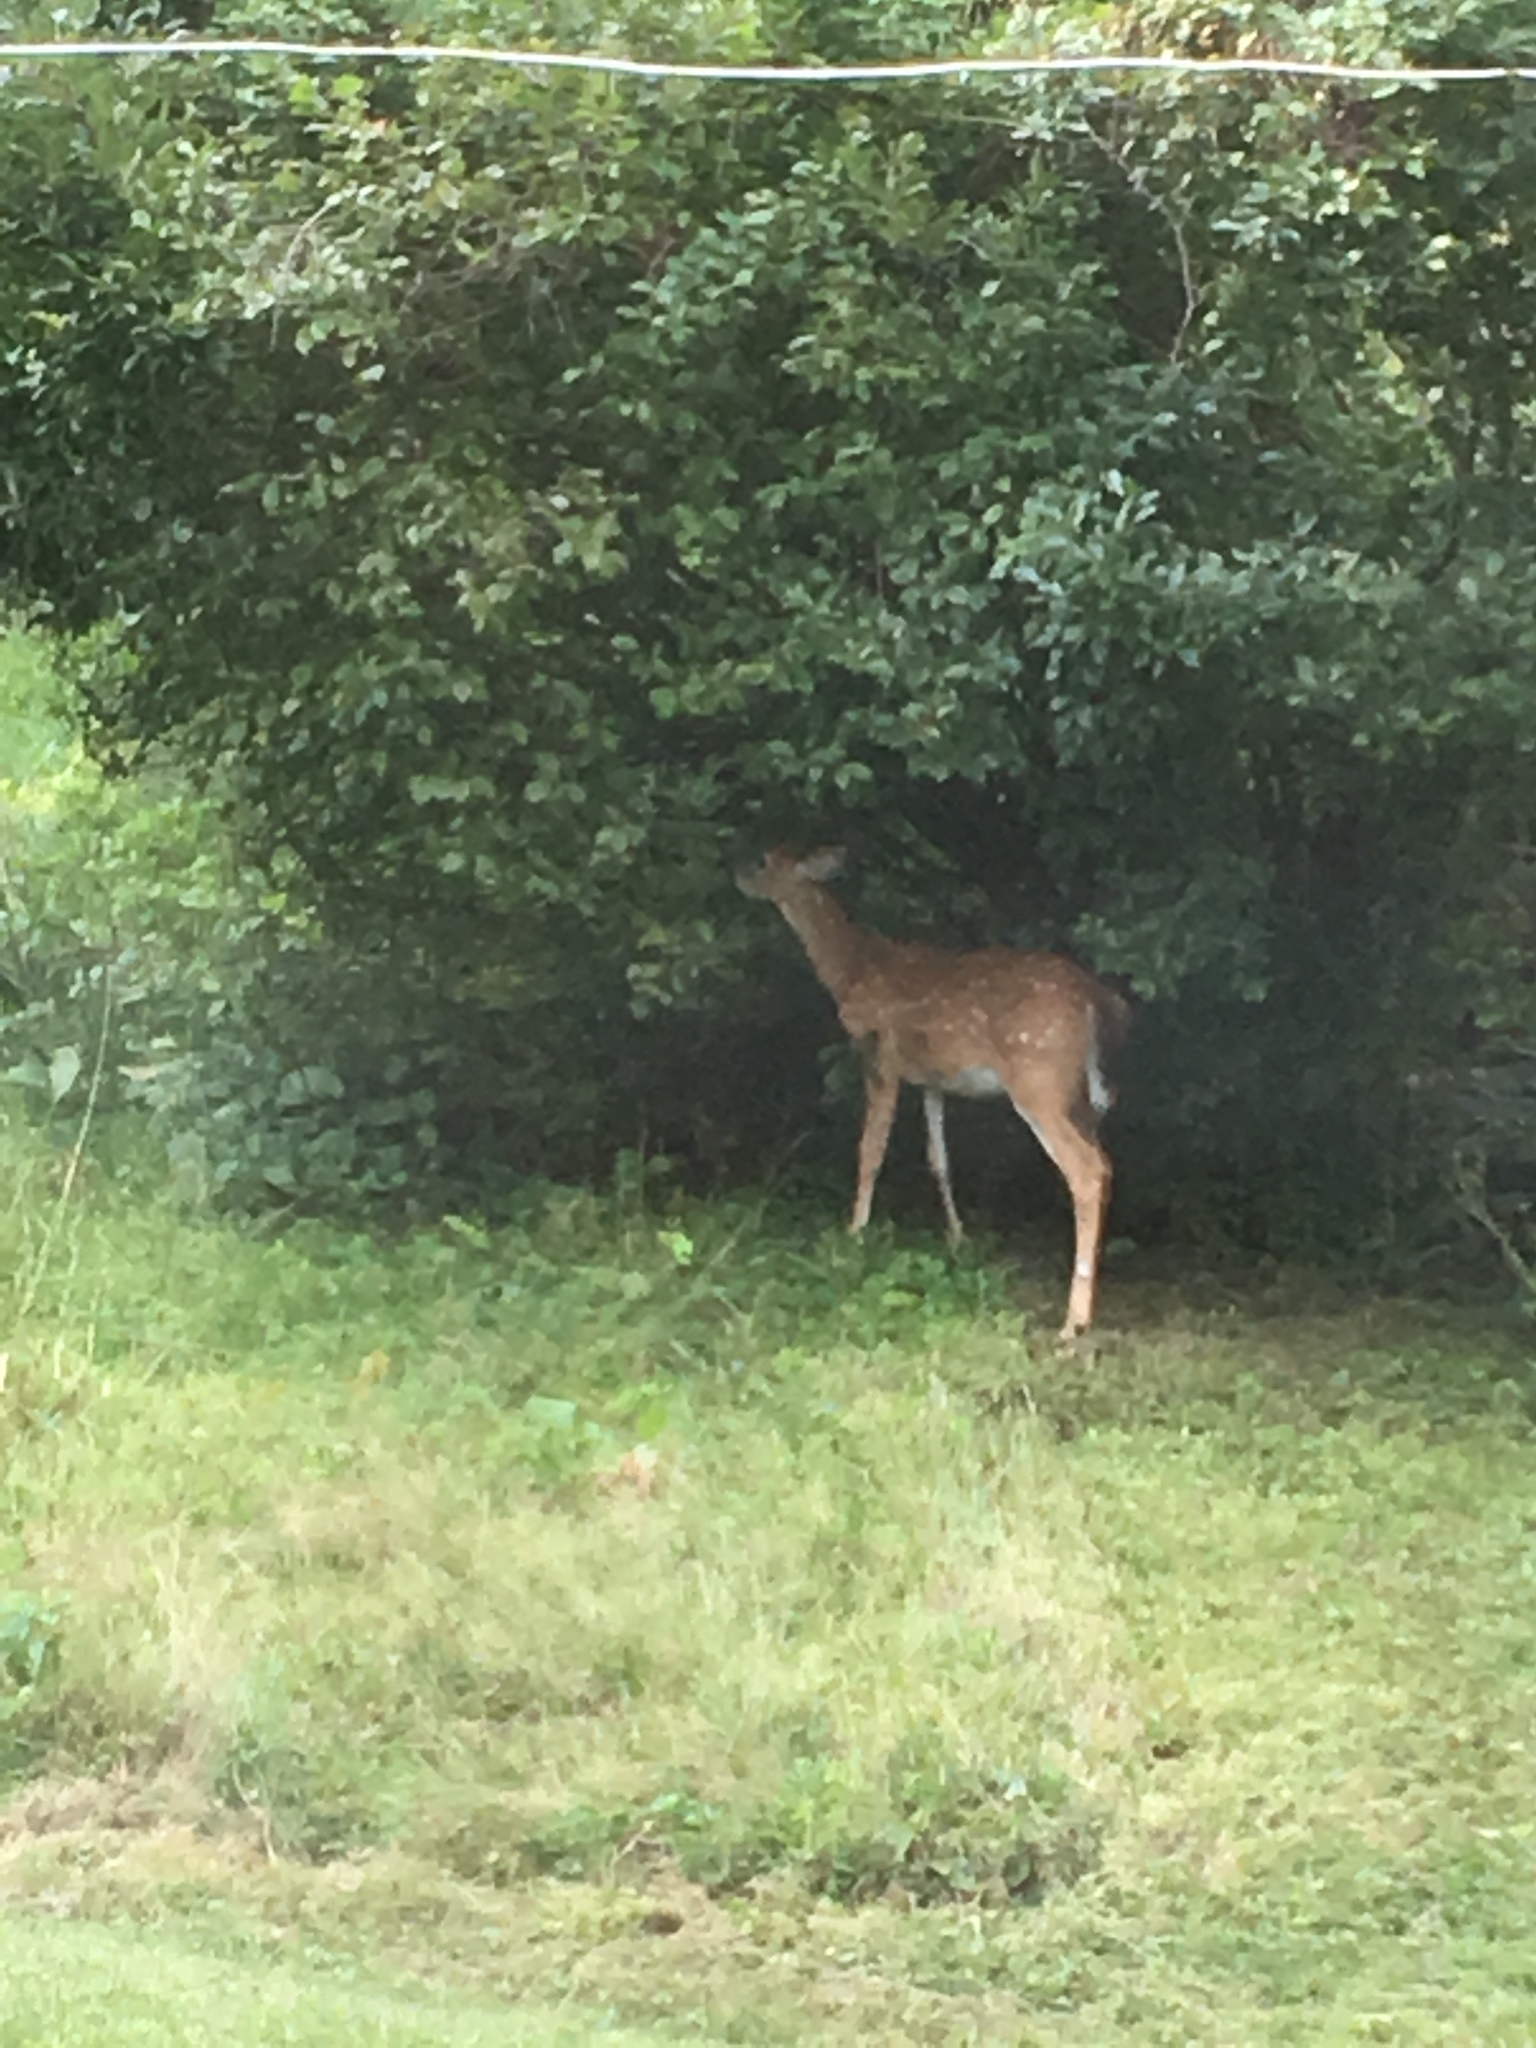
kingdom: Animalia
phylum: Chordata
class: Mammalia
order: Artiodactyla
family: Cervidae
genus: Odocoileus
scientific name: Odocoileus virginianus
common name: White-tailed deer
